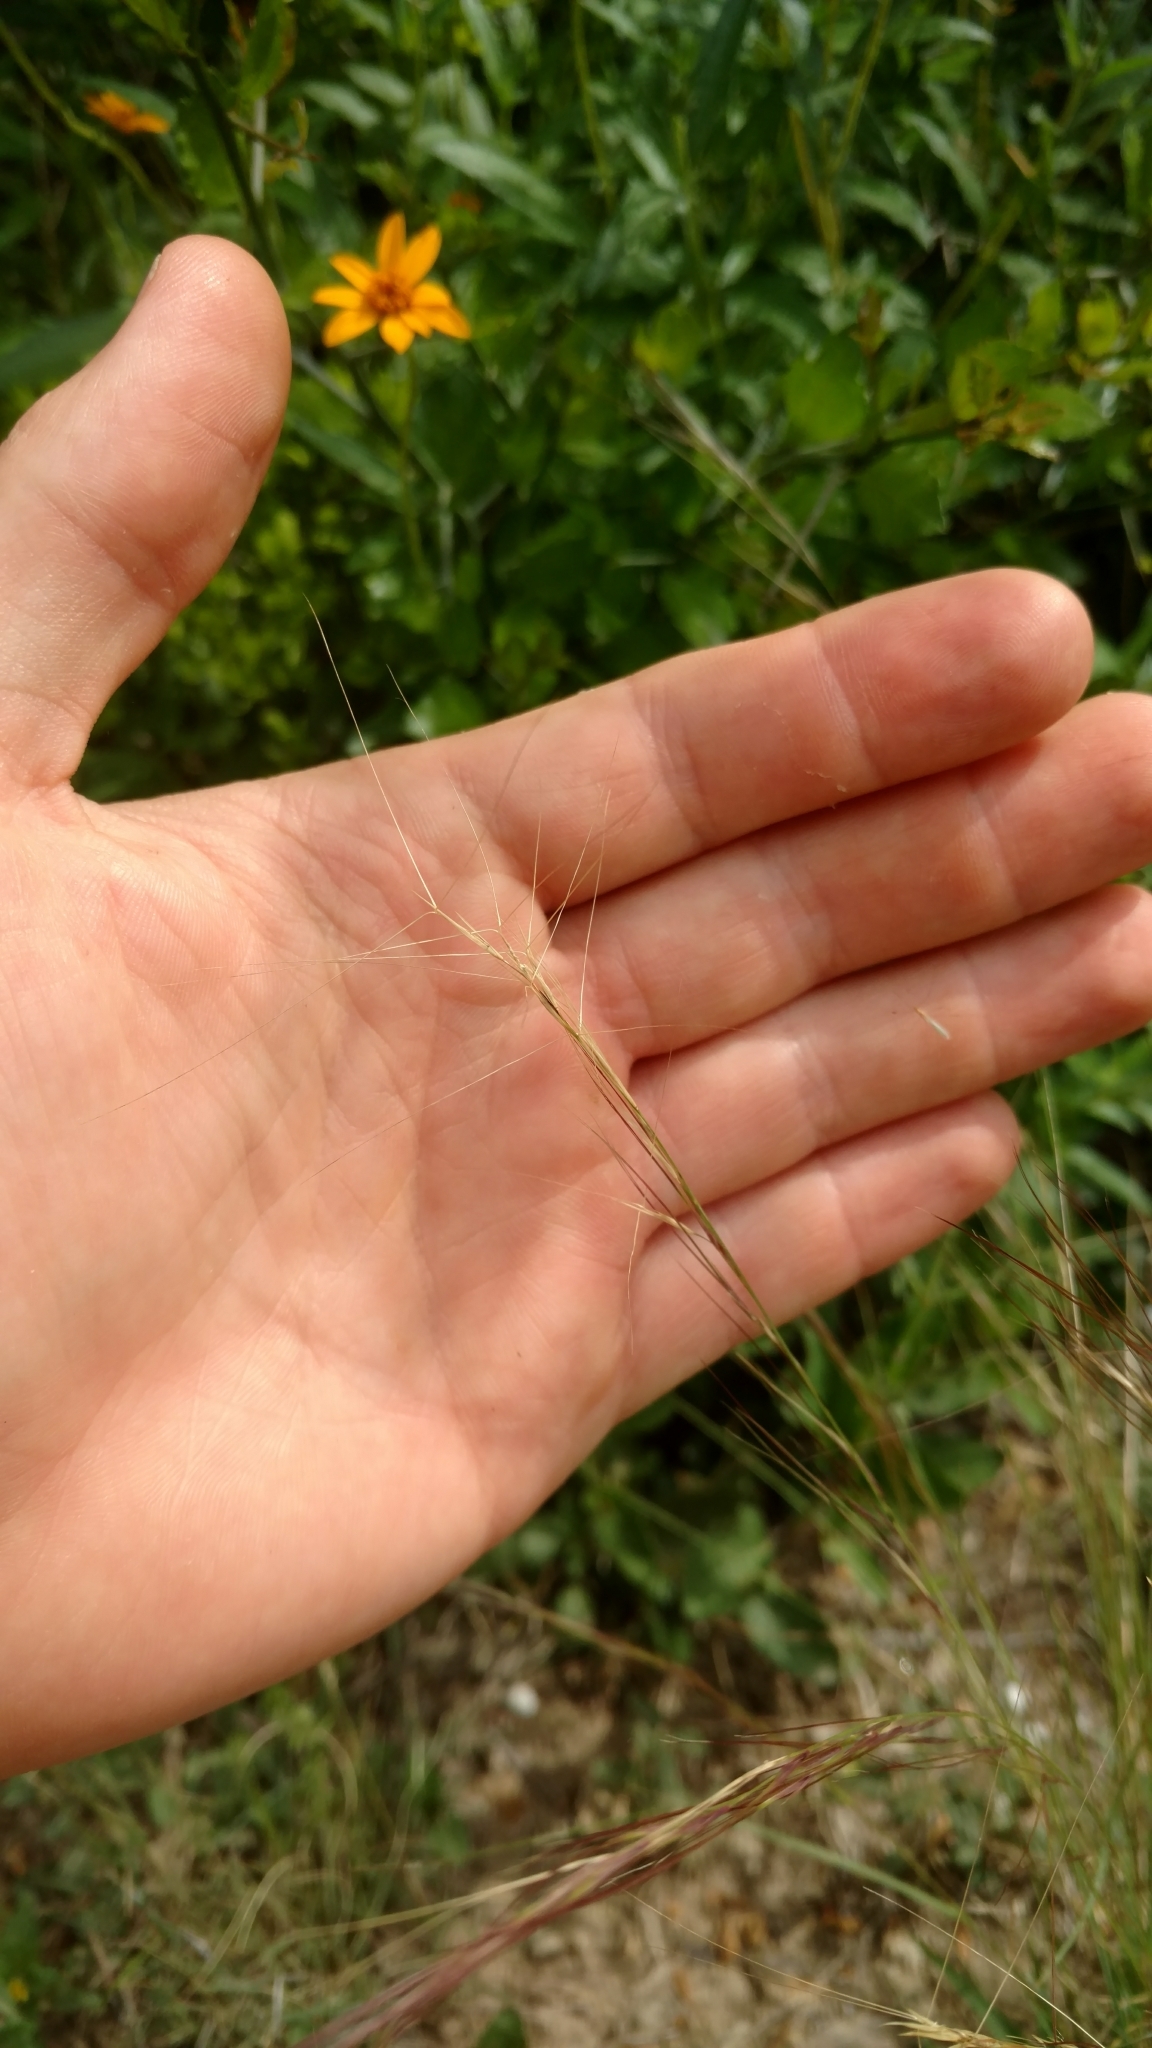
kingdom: Plantae
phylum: Tracheophyta
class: Liliopsida
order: Poales
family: Poaceae
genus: Aristida
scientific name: Aristida purpurea
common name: Purple threeawn
